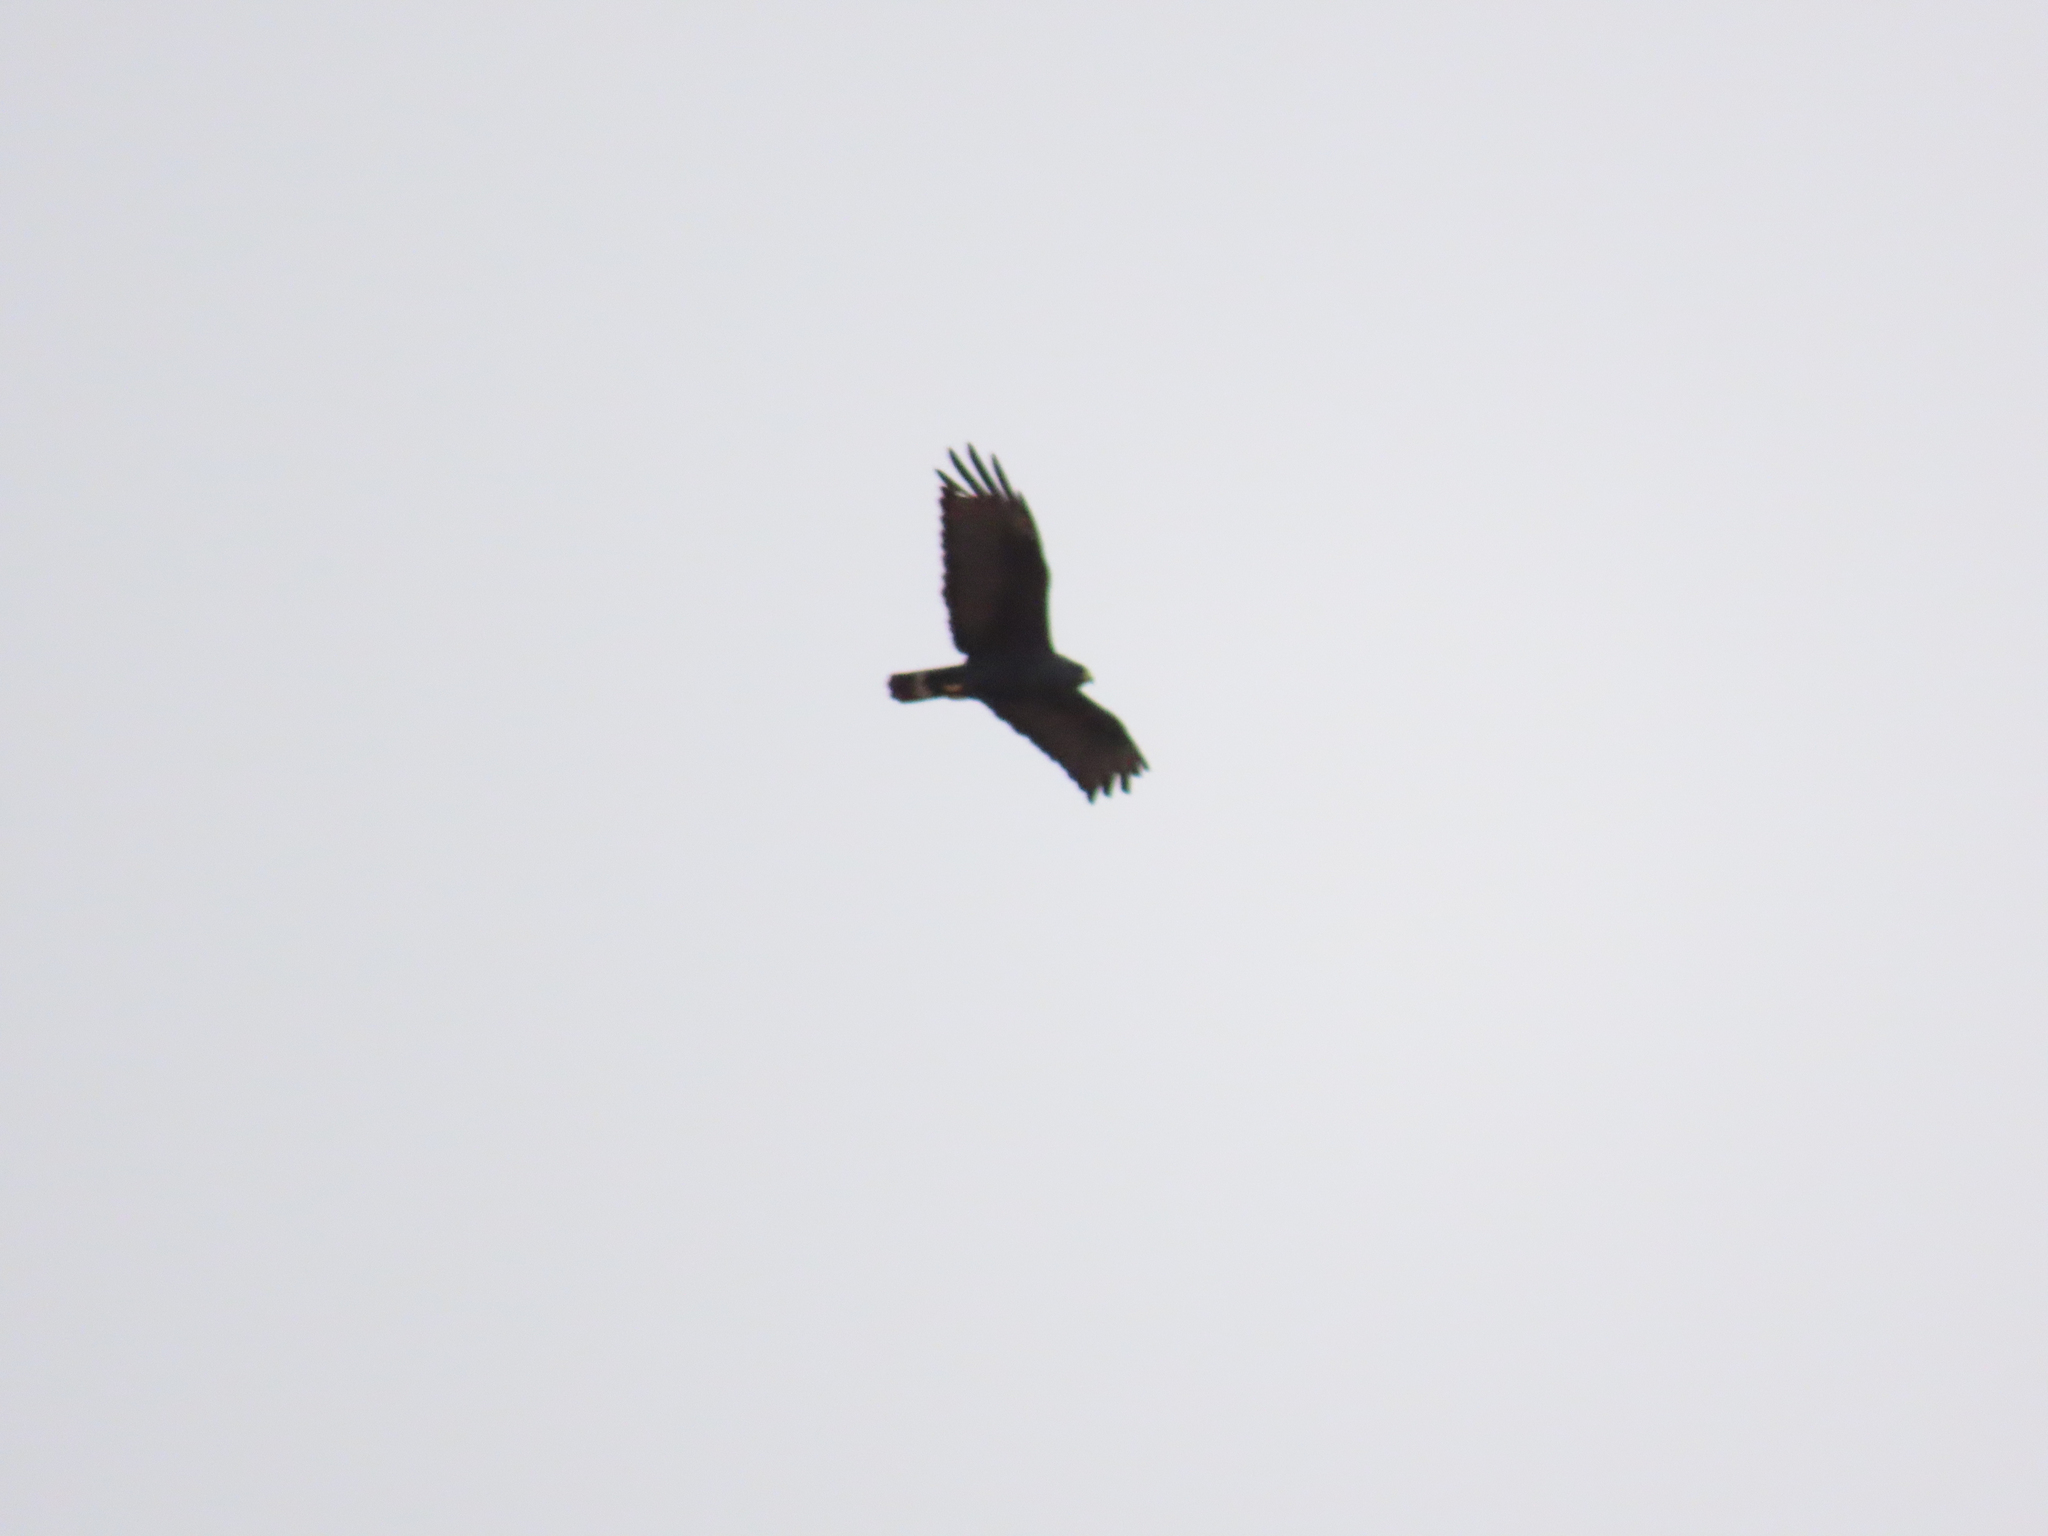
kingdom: Animalia
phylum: Chordata
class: Aves
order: Accipitriformes
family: Accipitridae
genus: Buteo
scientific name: Buteo albonotatus
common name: Zone-tailed hawk
